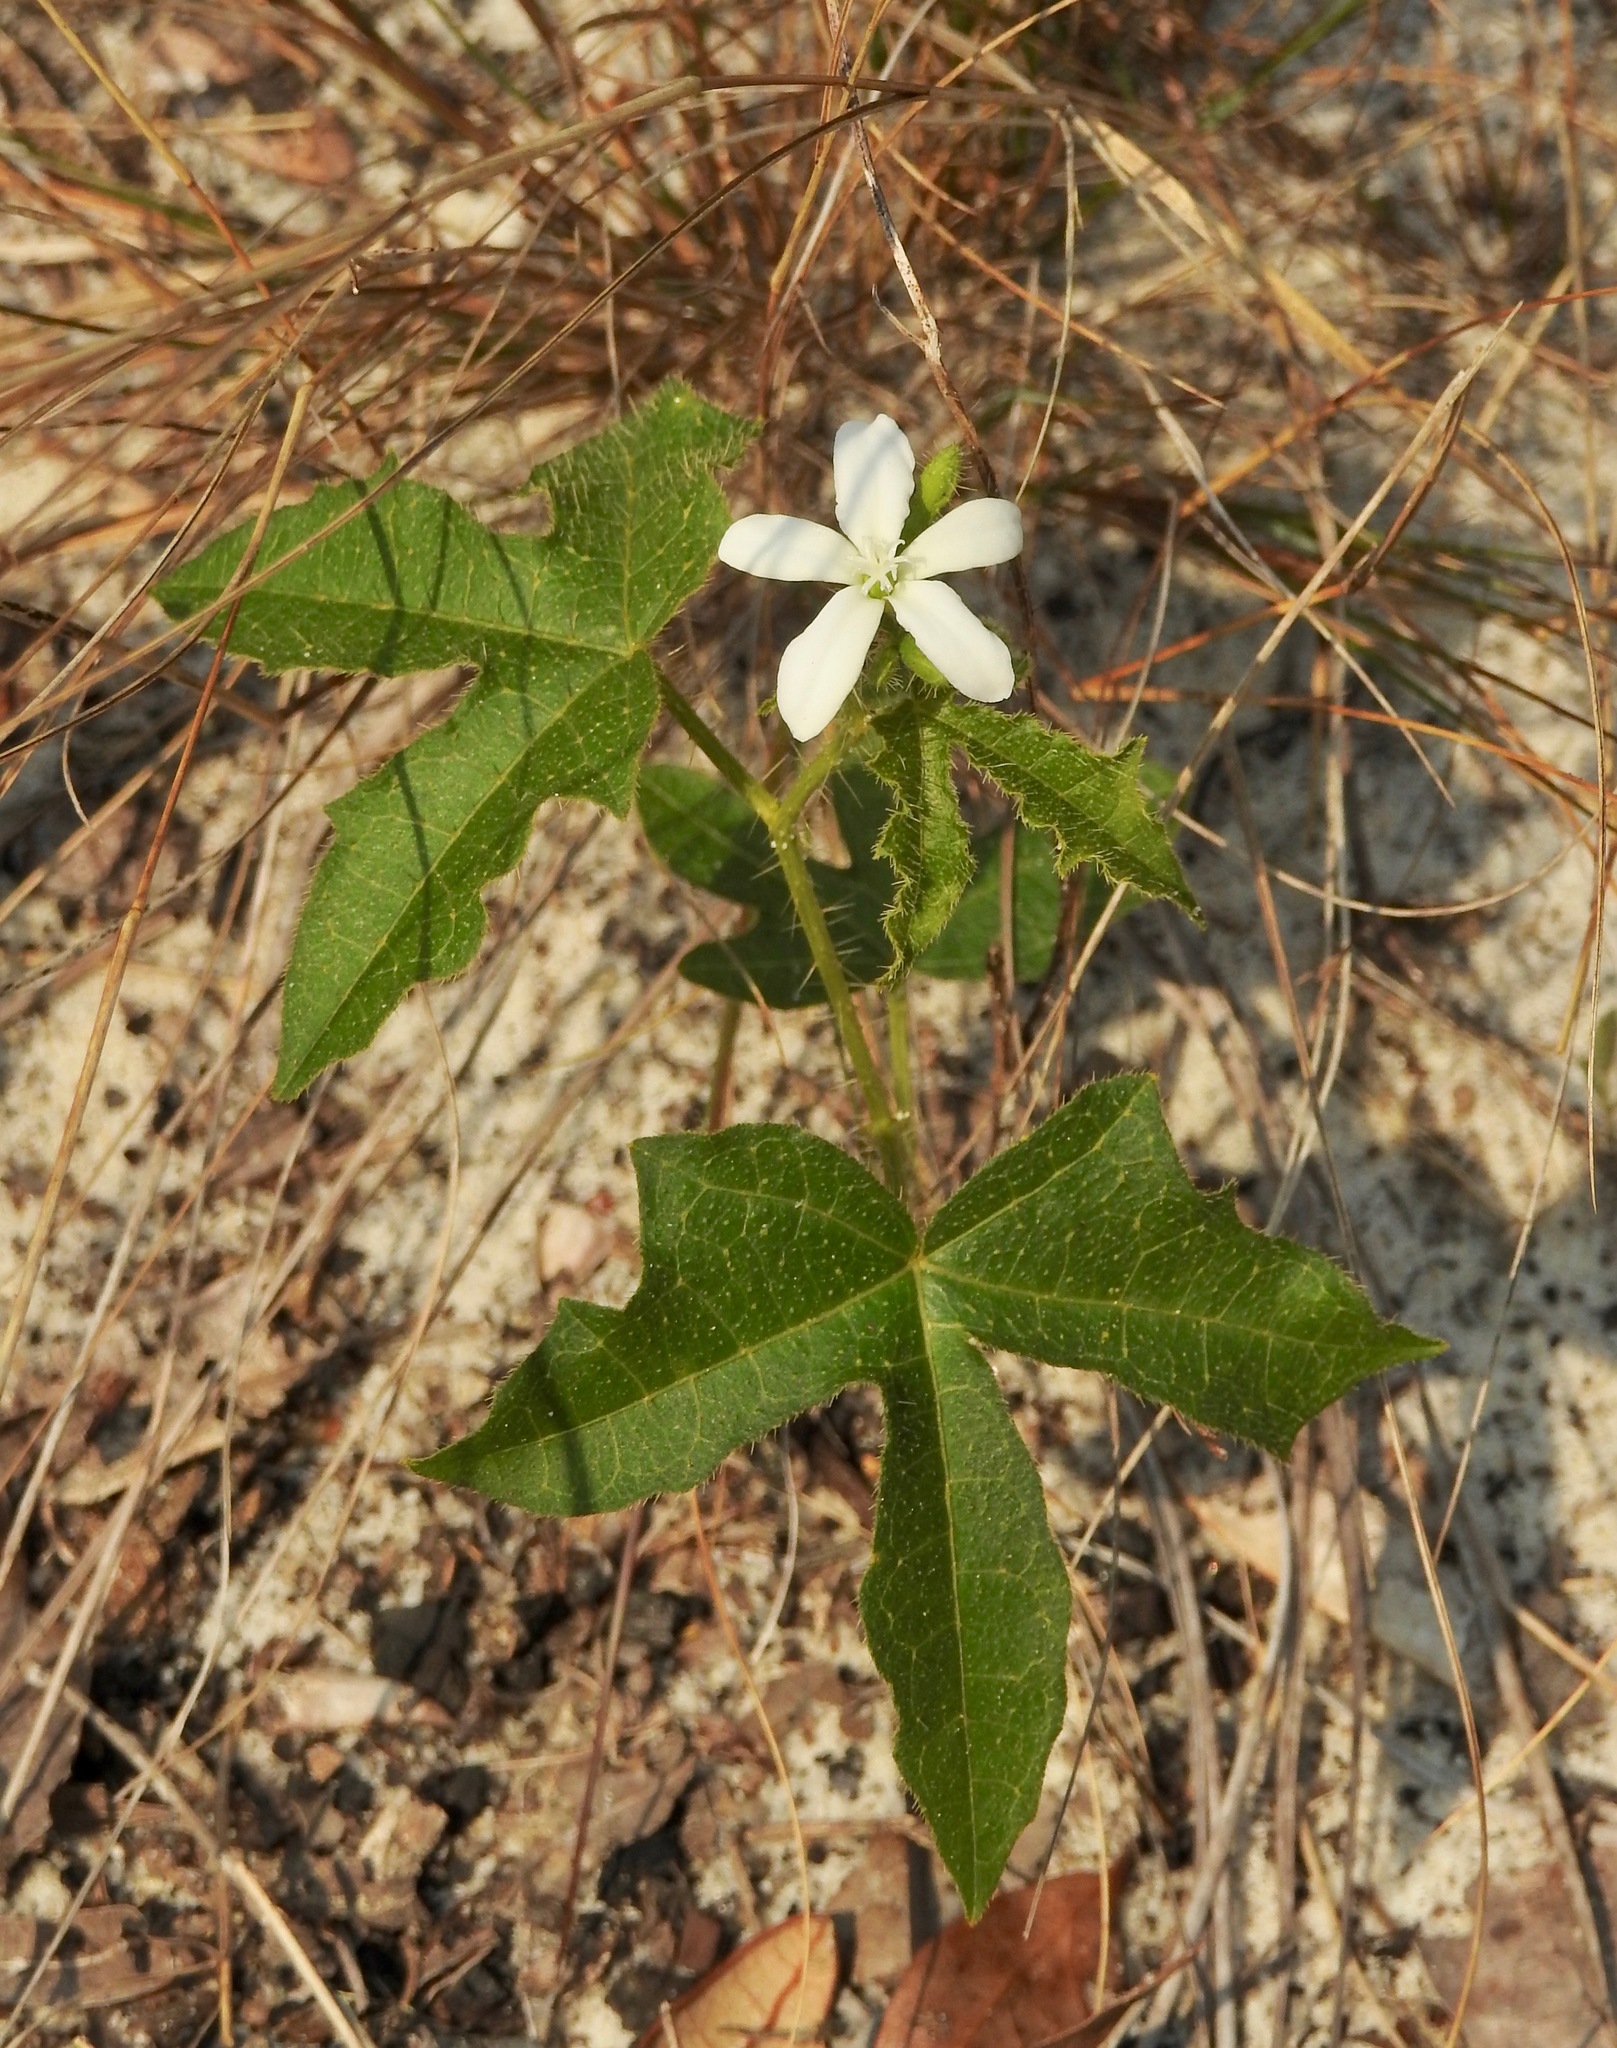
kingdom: Plantae
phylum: Tracheophyta
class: Magnoliopsida
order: Malpighiales
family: Euphorbiaceae
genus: Cnidoscolus
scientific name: Cnidoscolus stimulosus
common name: Bull-nettle
